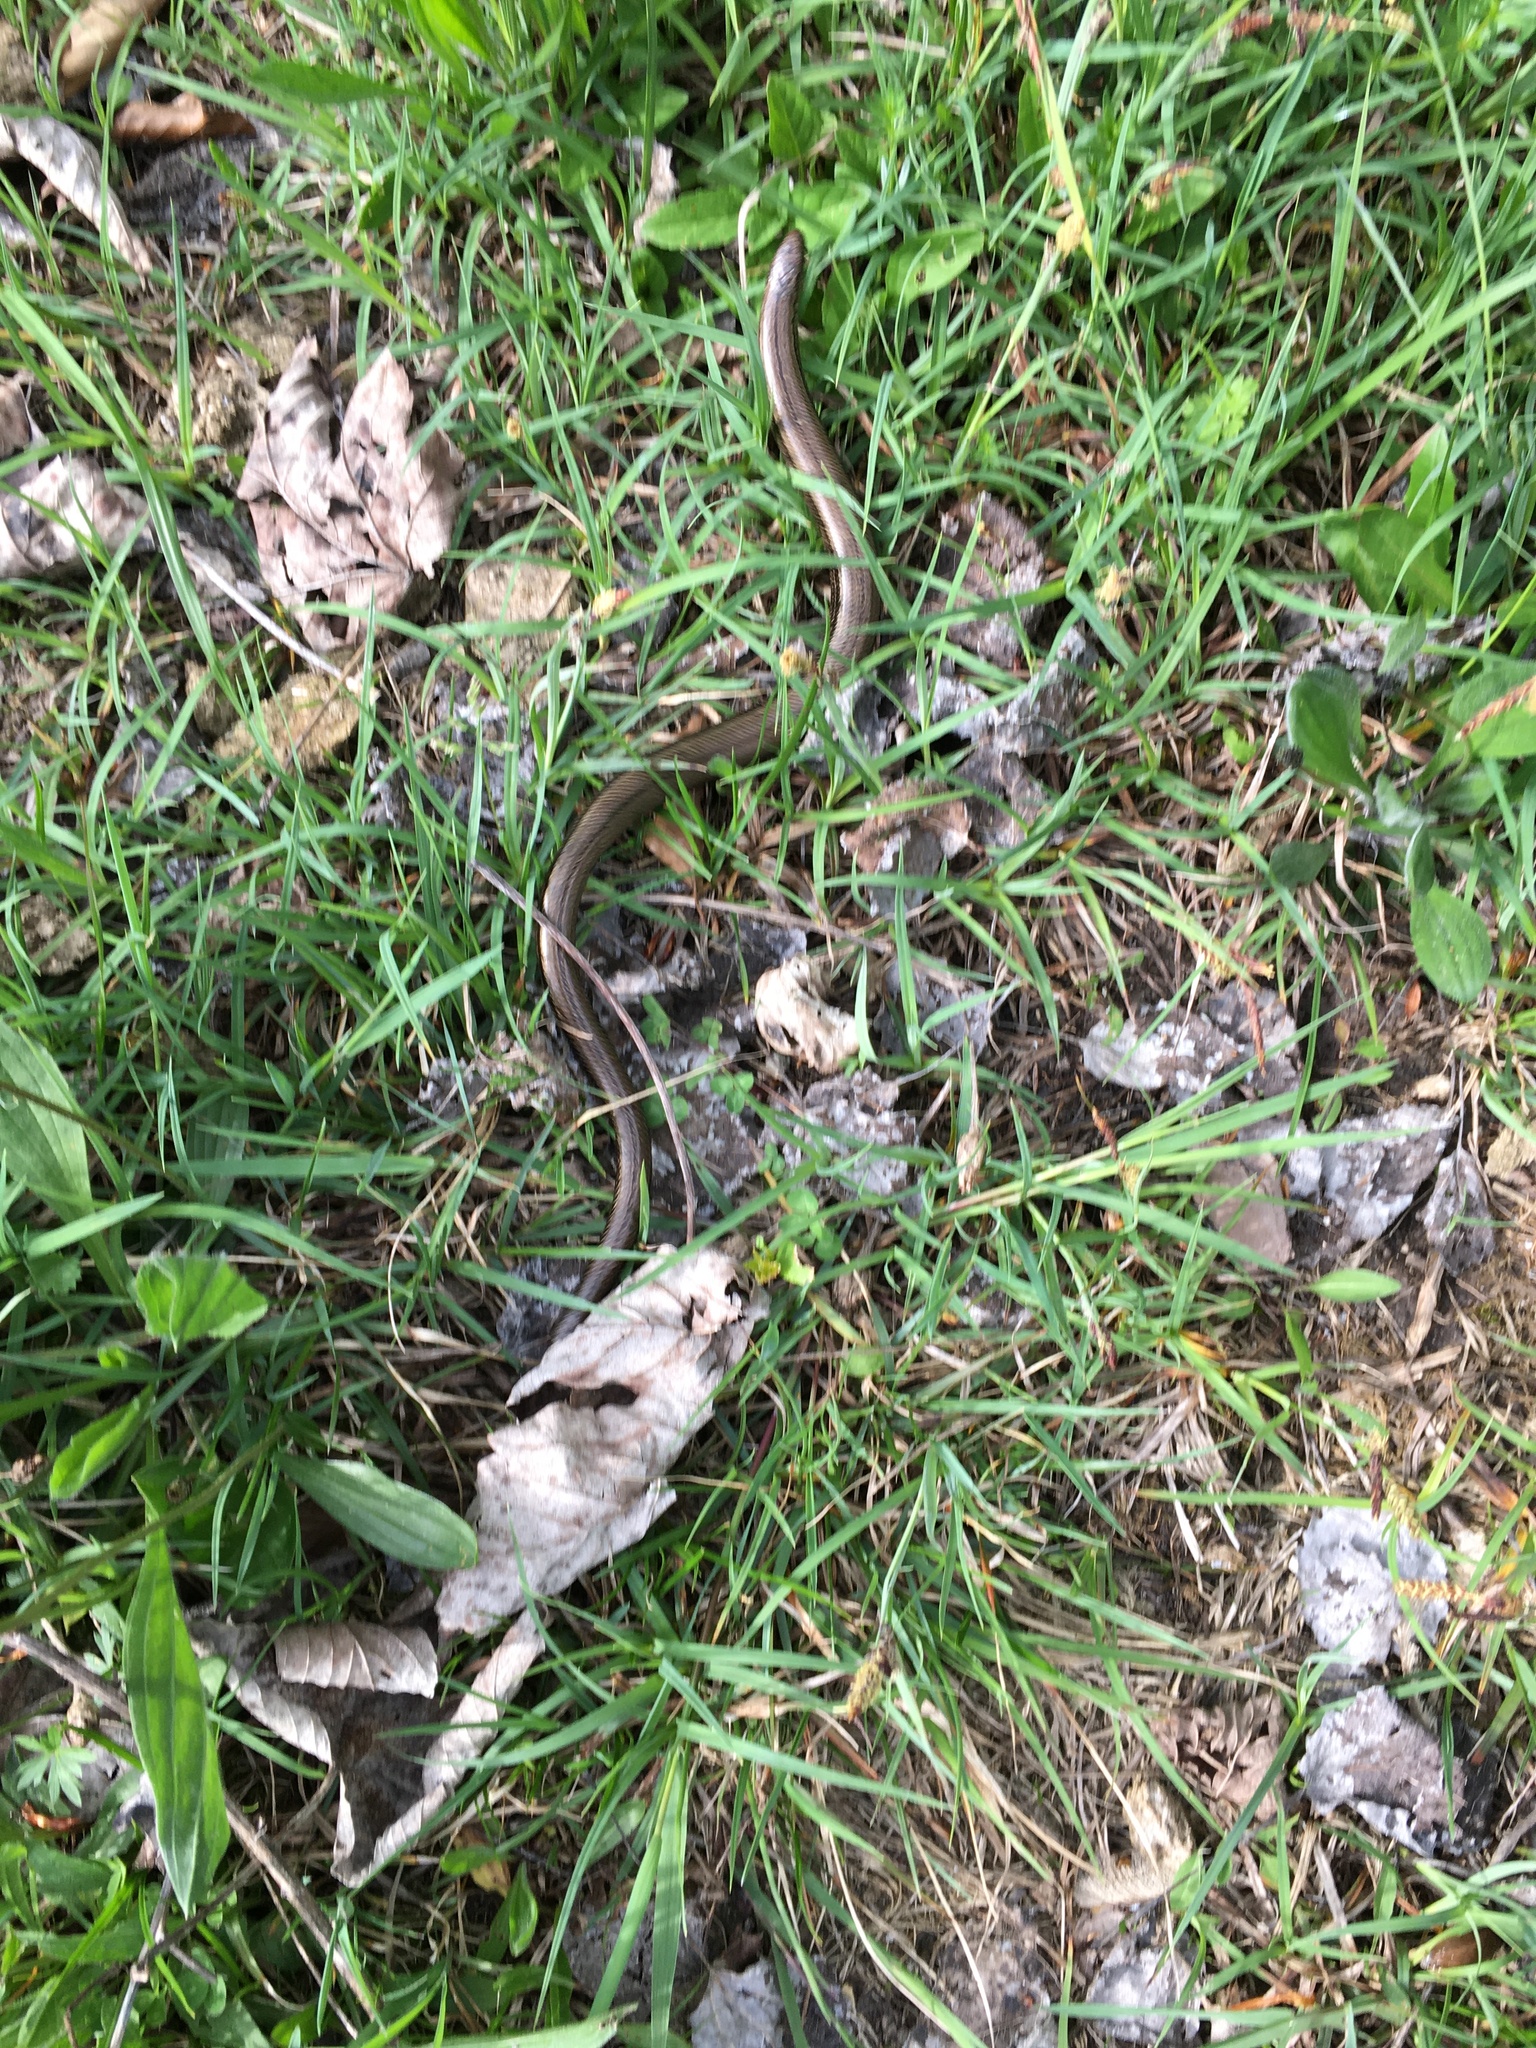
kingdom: Animalia
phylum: Chordata
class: Squamata
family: Anguidae
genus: Anguis
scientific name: Anguis fragilis
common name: Slow worm
